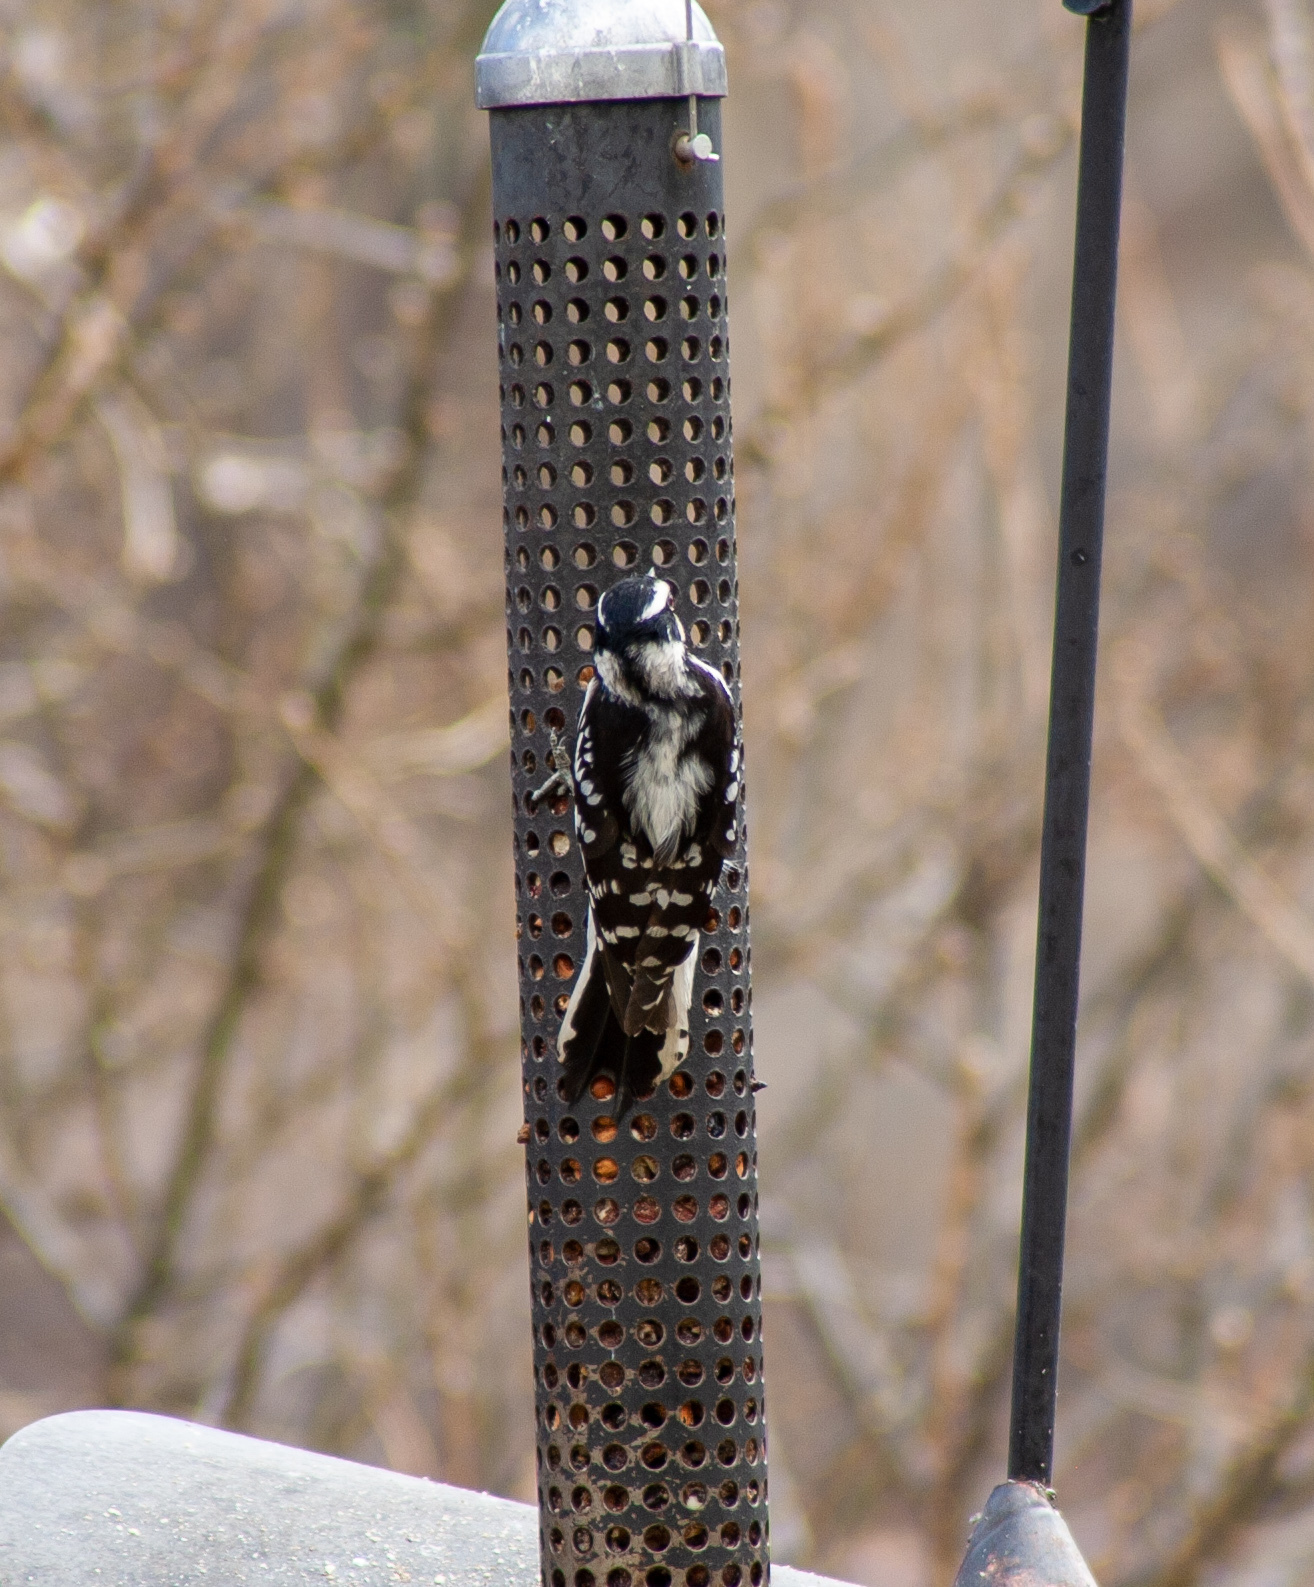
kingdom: Animalia
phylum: Chordata
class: Aves
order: Piciformes
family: Picidae
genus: Dryobates
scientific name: Dryobates pubescens
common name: Downy woodpecker
